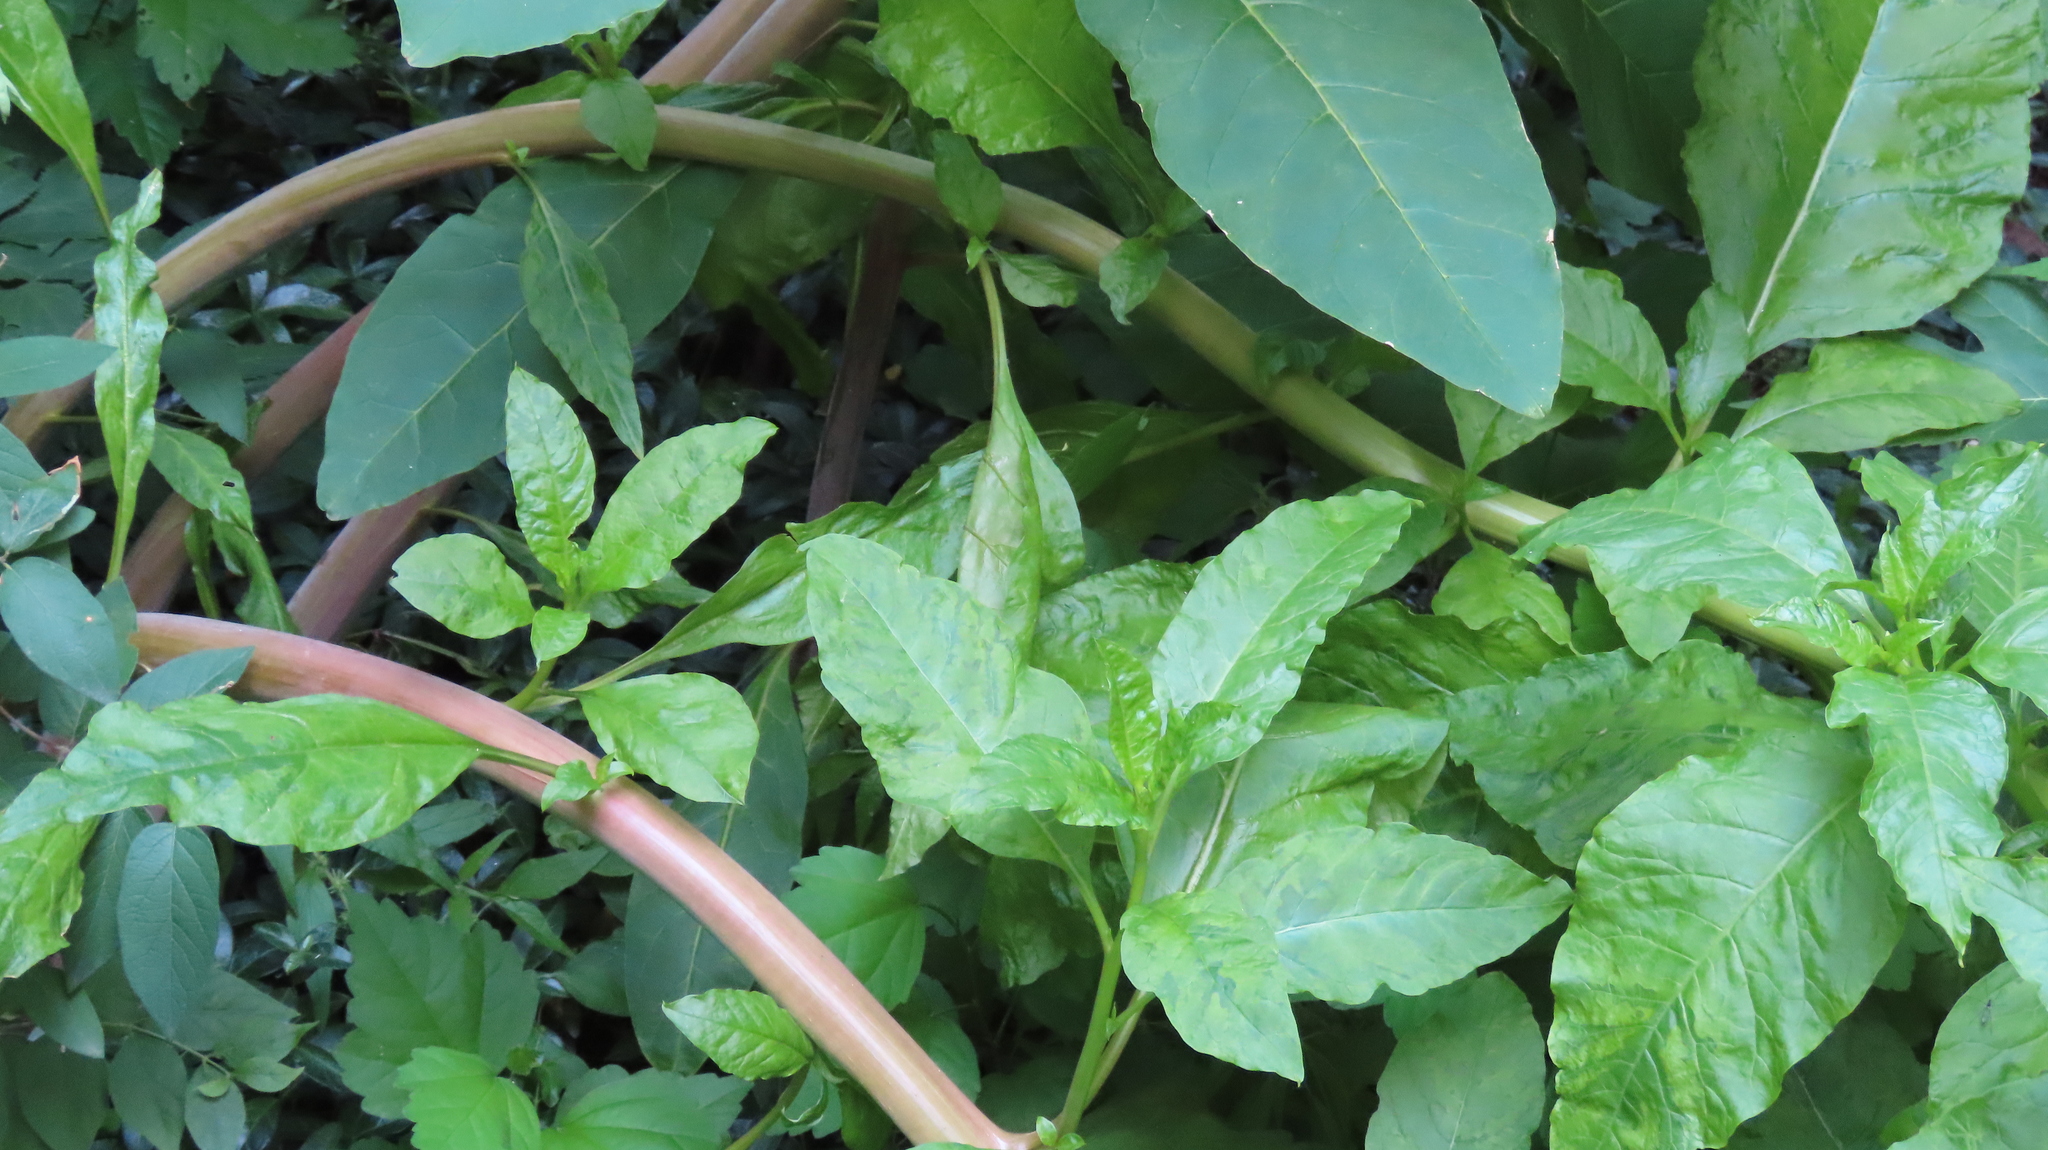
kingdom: Plantae
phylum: Tracheophyta
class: Magnoliopsida
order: Caryophyllales
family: Phytolaccaceae
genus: Phytolacca
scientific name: Phytolacca americana
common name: American pokeweed
